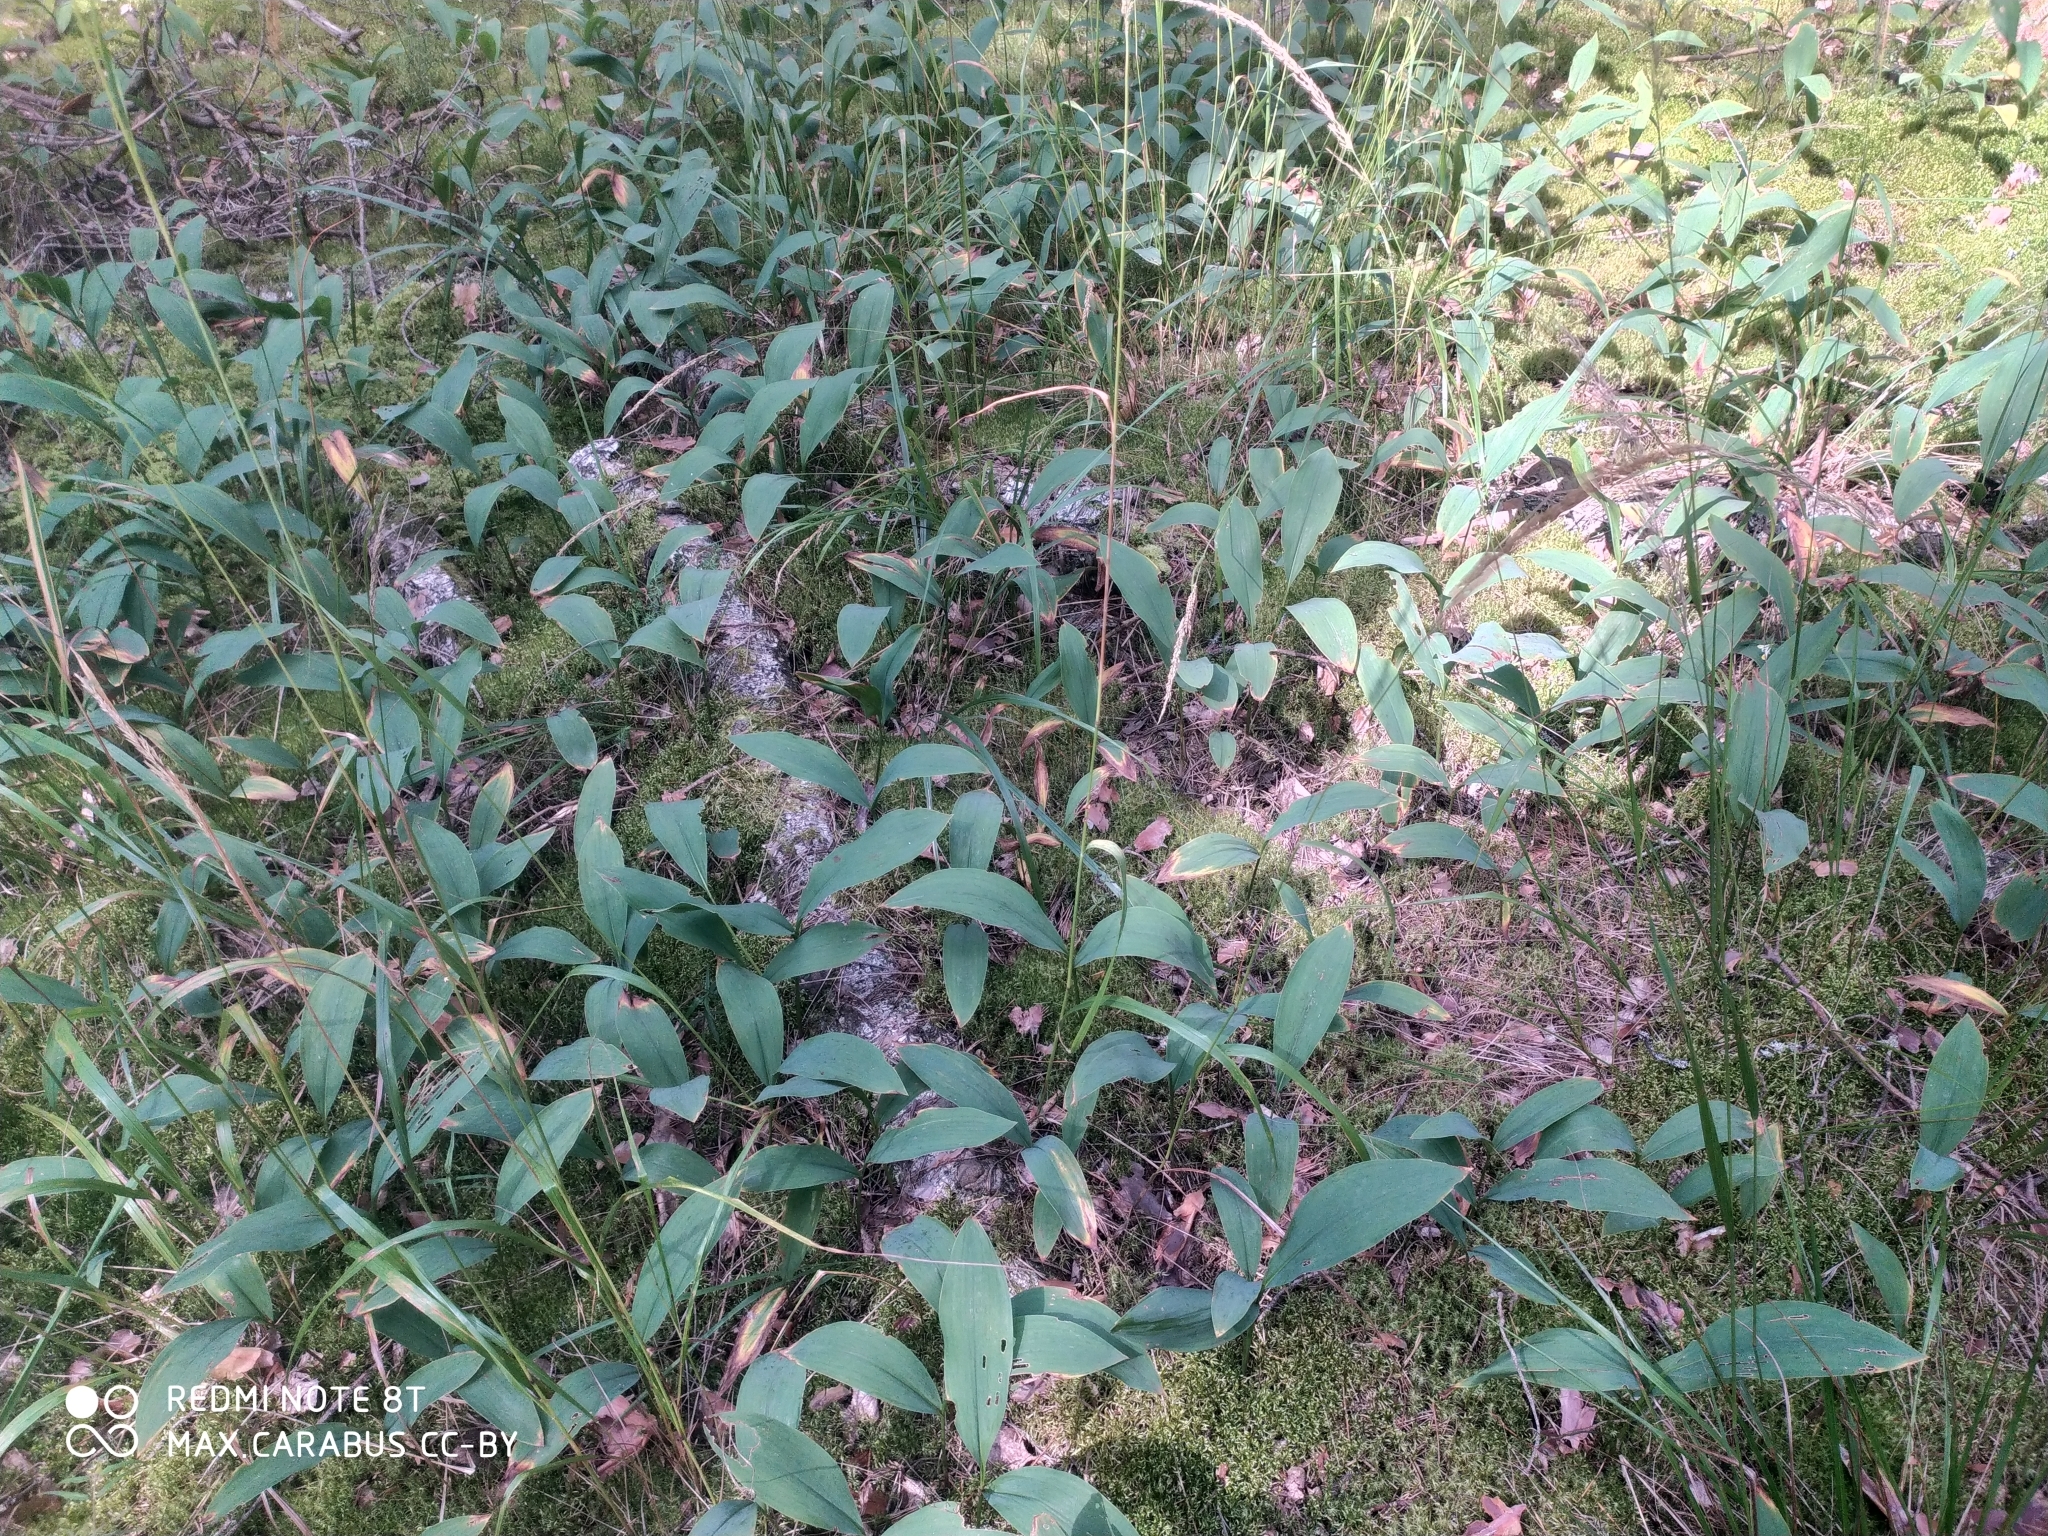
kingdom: Plantae
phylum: Tracheophyta
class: Liliopsida
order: Asparagales
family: Asparagaceae
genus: Convallaria
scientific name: Convallaria majalis
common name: Lily-of-the-valley
